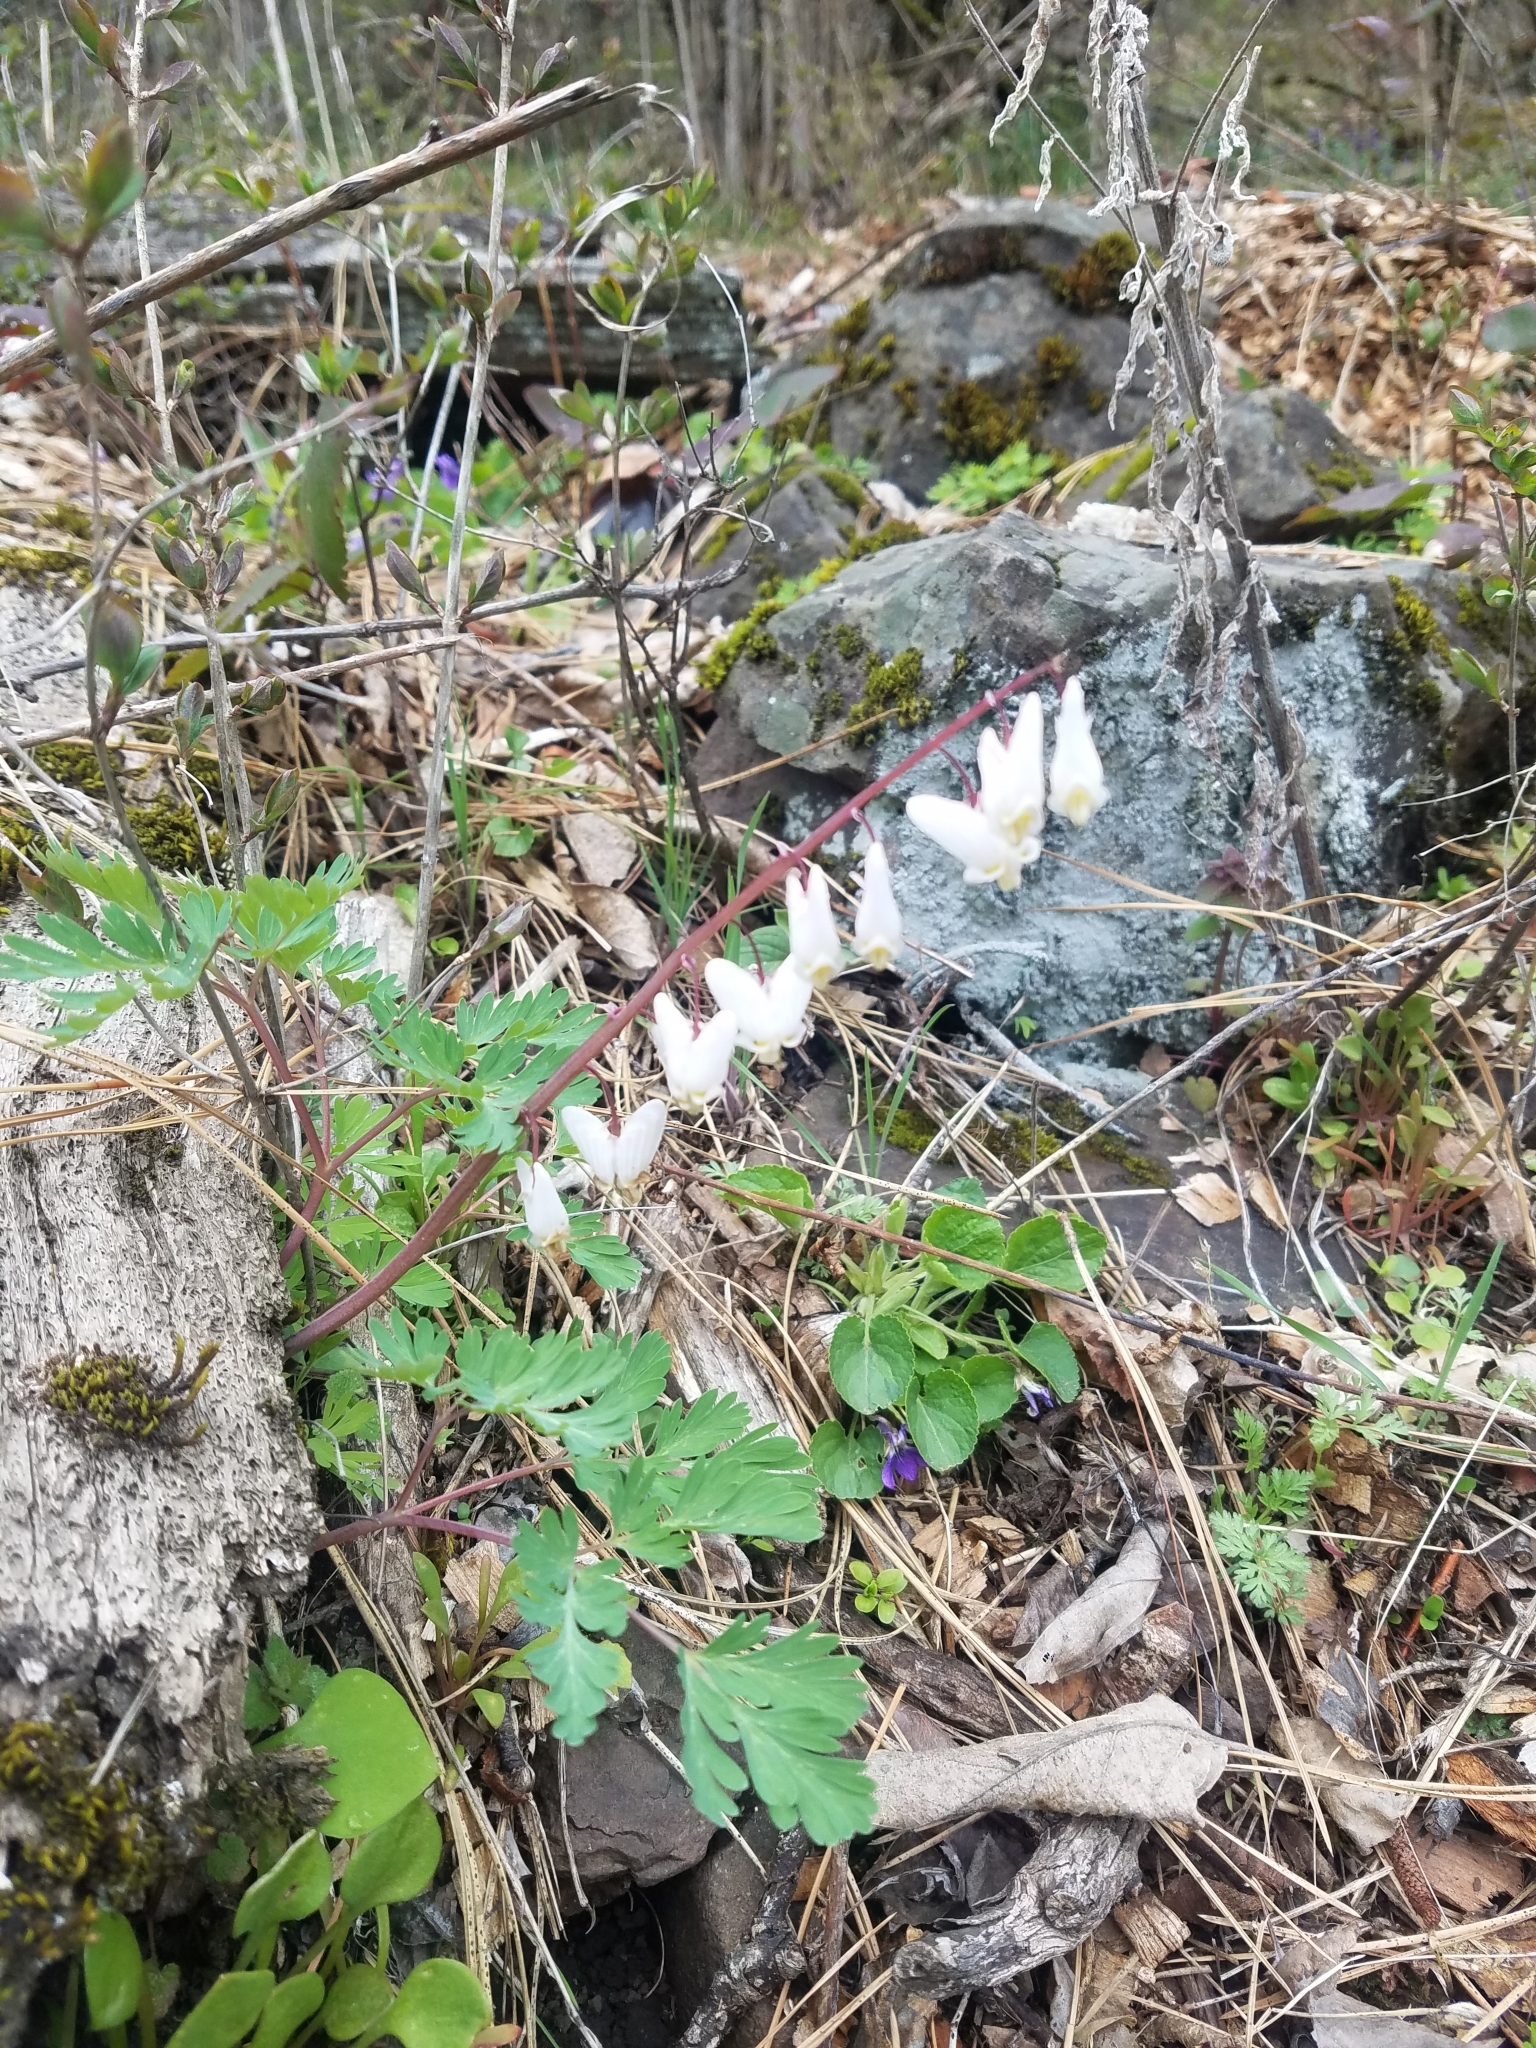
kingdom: Plantae
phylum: Tracheophyta
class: Magnoliopsida
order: Ranunculales
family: Papaveraceae
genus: Dicentra
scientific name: Dicentra cucullaria
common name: Dutchman's breeches
